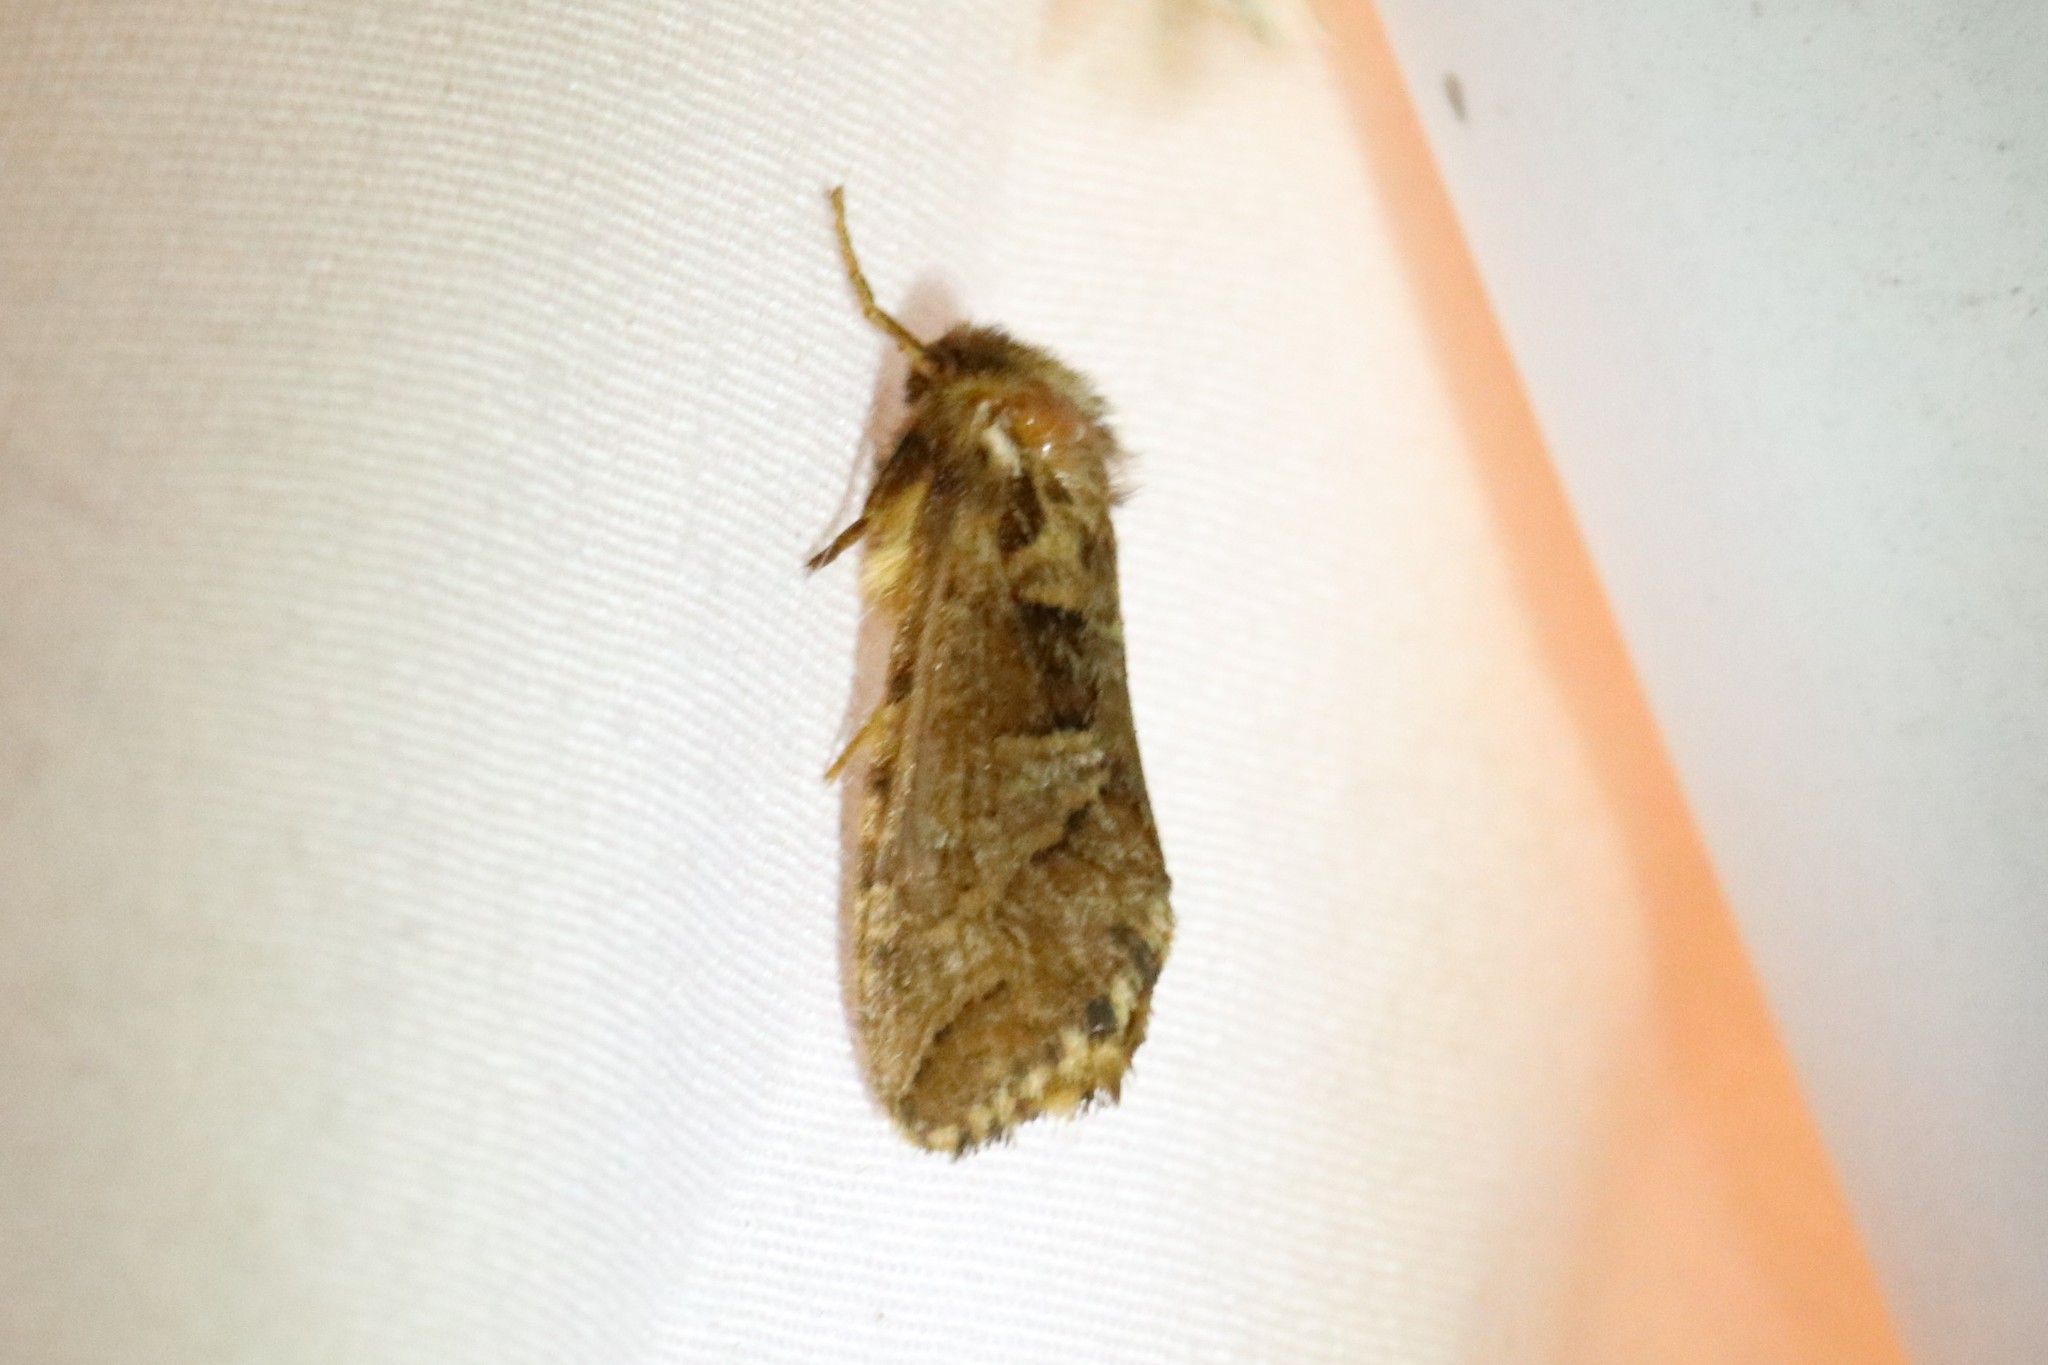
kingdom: Animalia
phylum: Arthropoda
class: Insecta
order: Lepidoptera
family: Hepialidae
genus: Korscheltellus
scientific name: Korscheltellus gracilis
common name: Conifer swift moth
